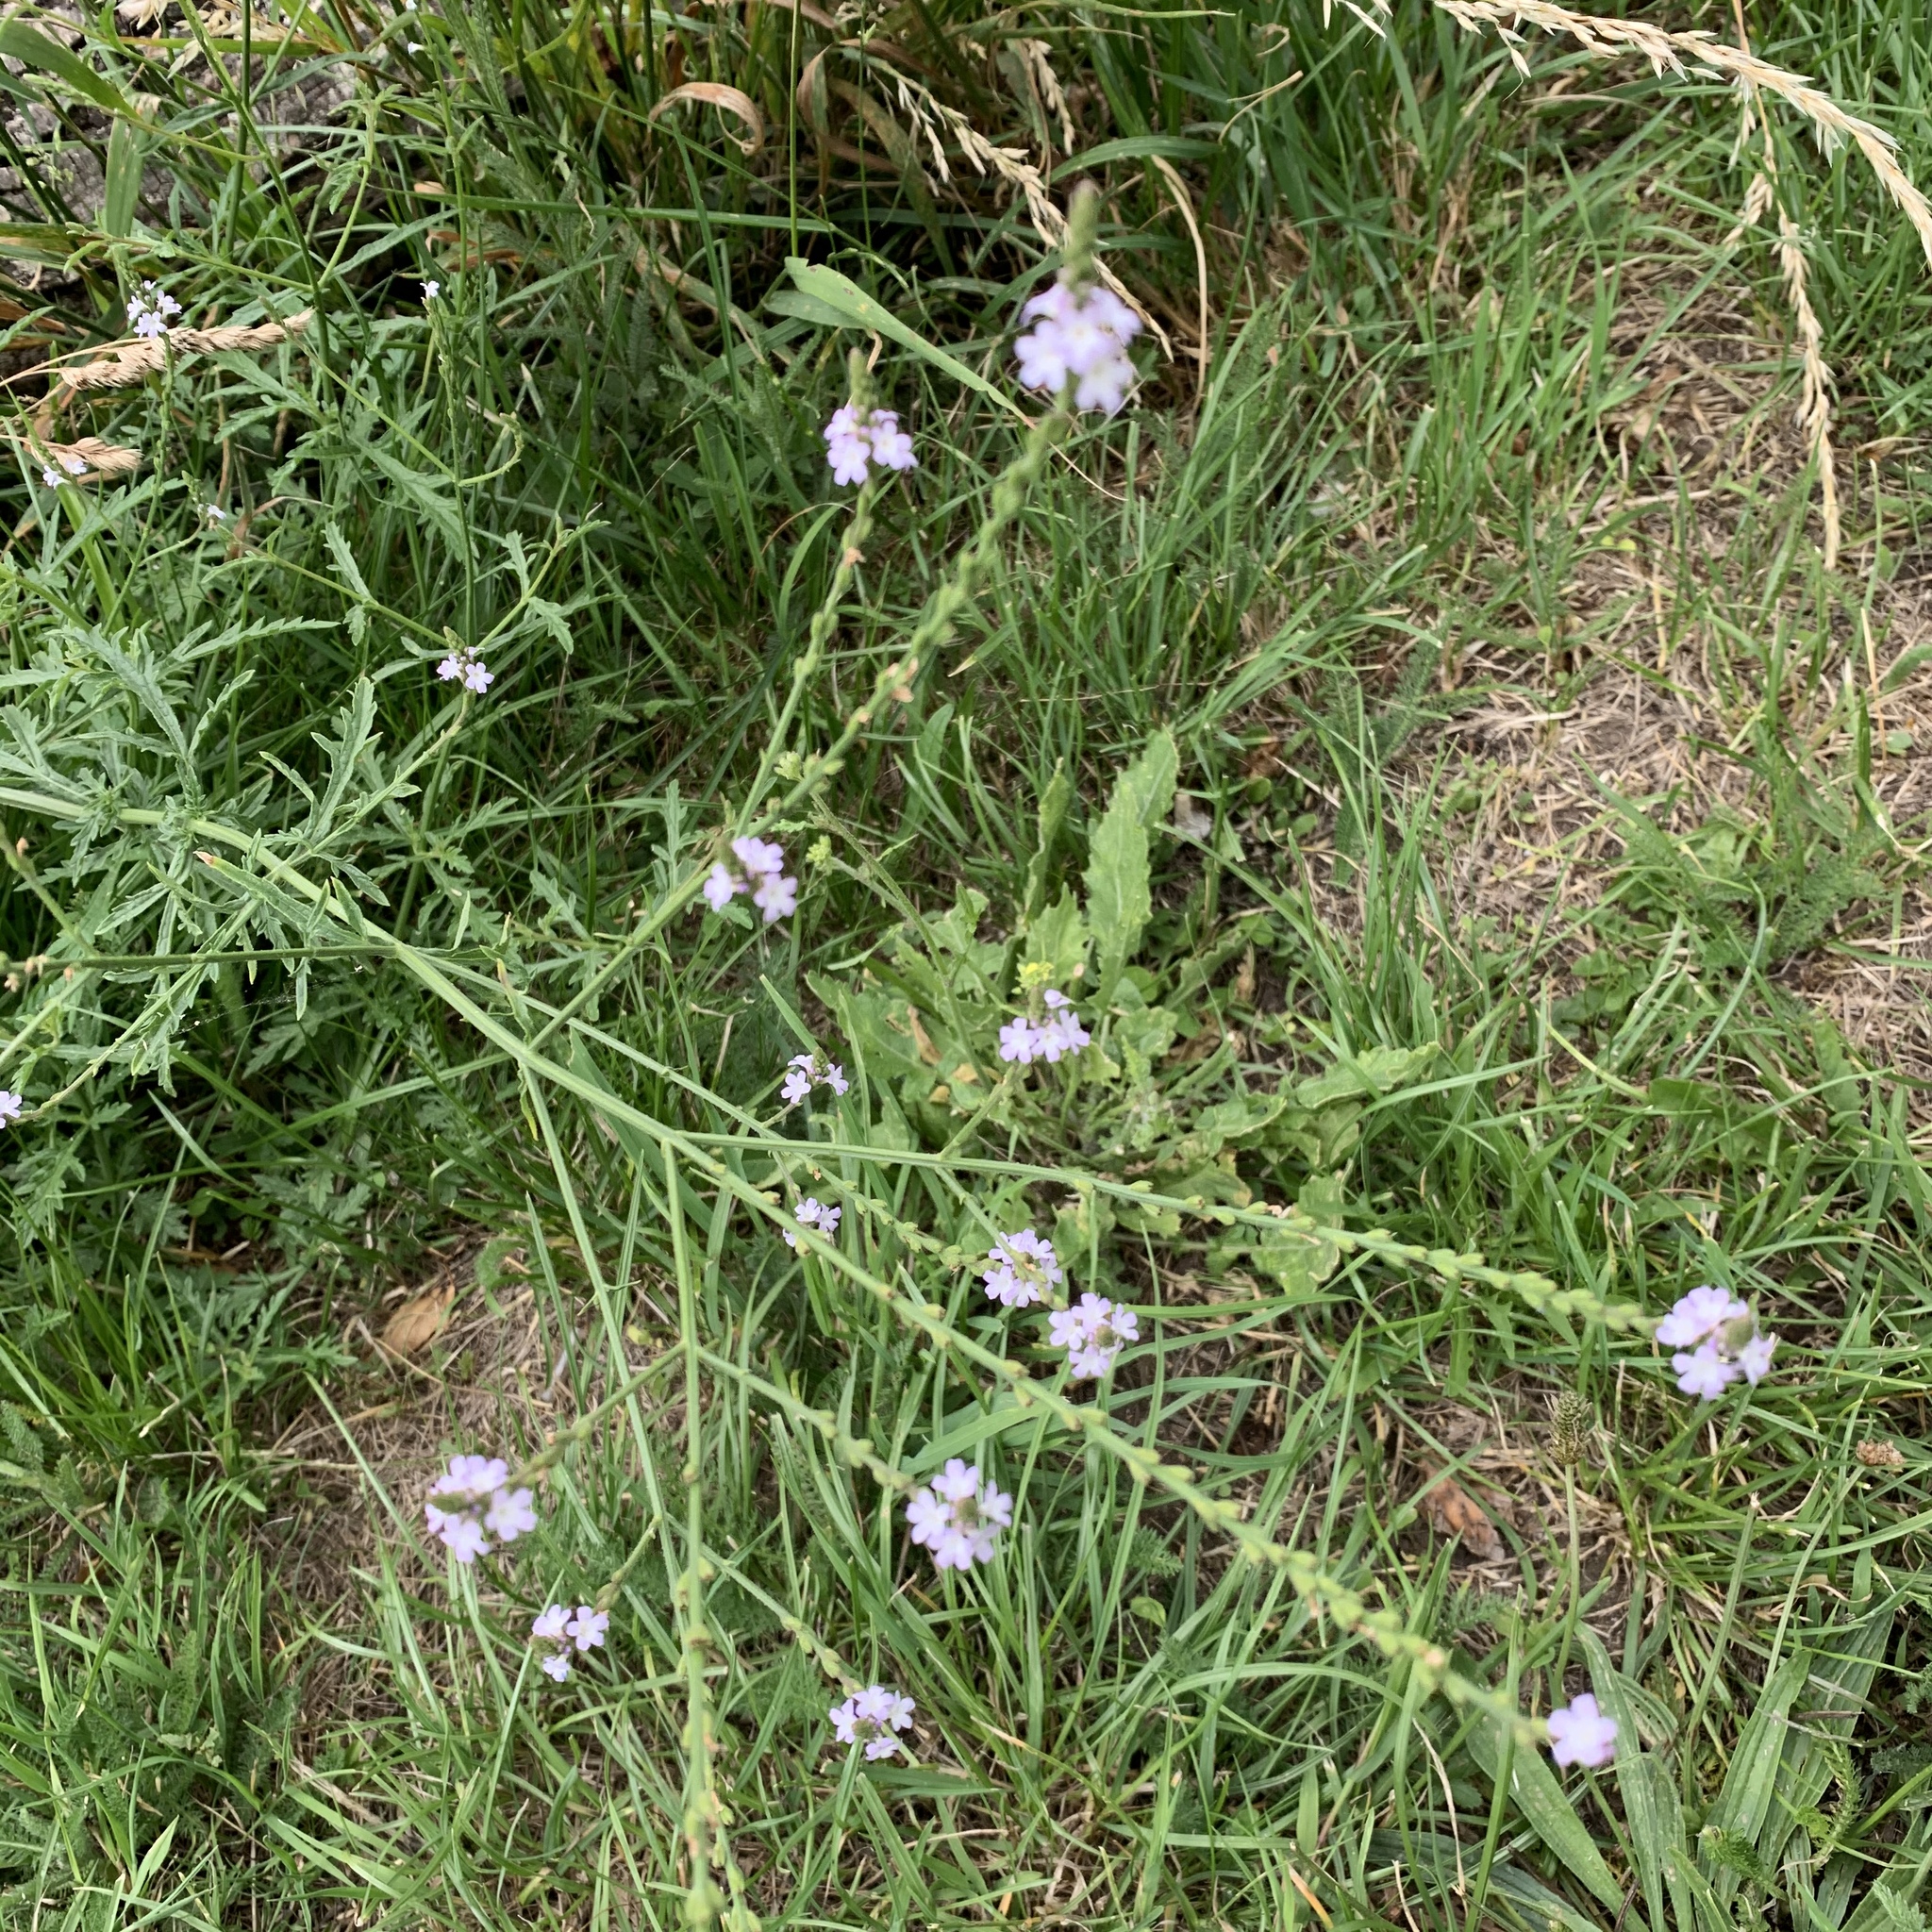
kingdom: Plantae
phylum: Tracheophyta
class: Magnoliopsida
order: Lamiales
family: Verbenaceae
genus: Verbena
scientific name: Verbena officinalis
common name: Vervain
